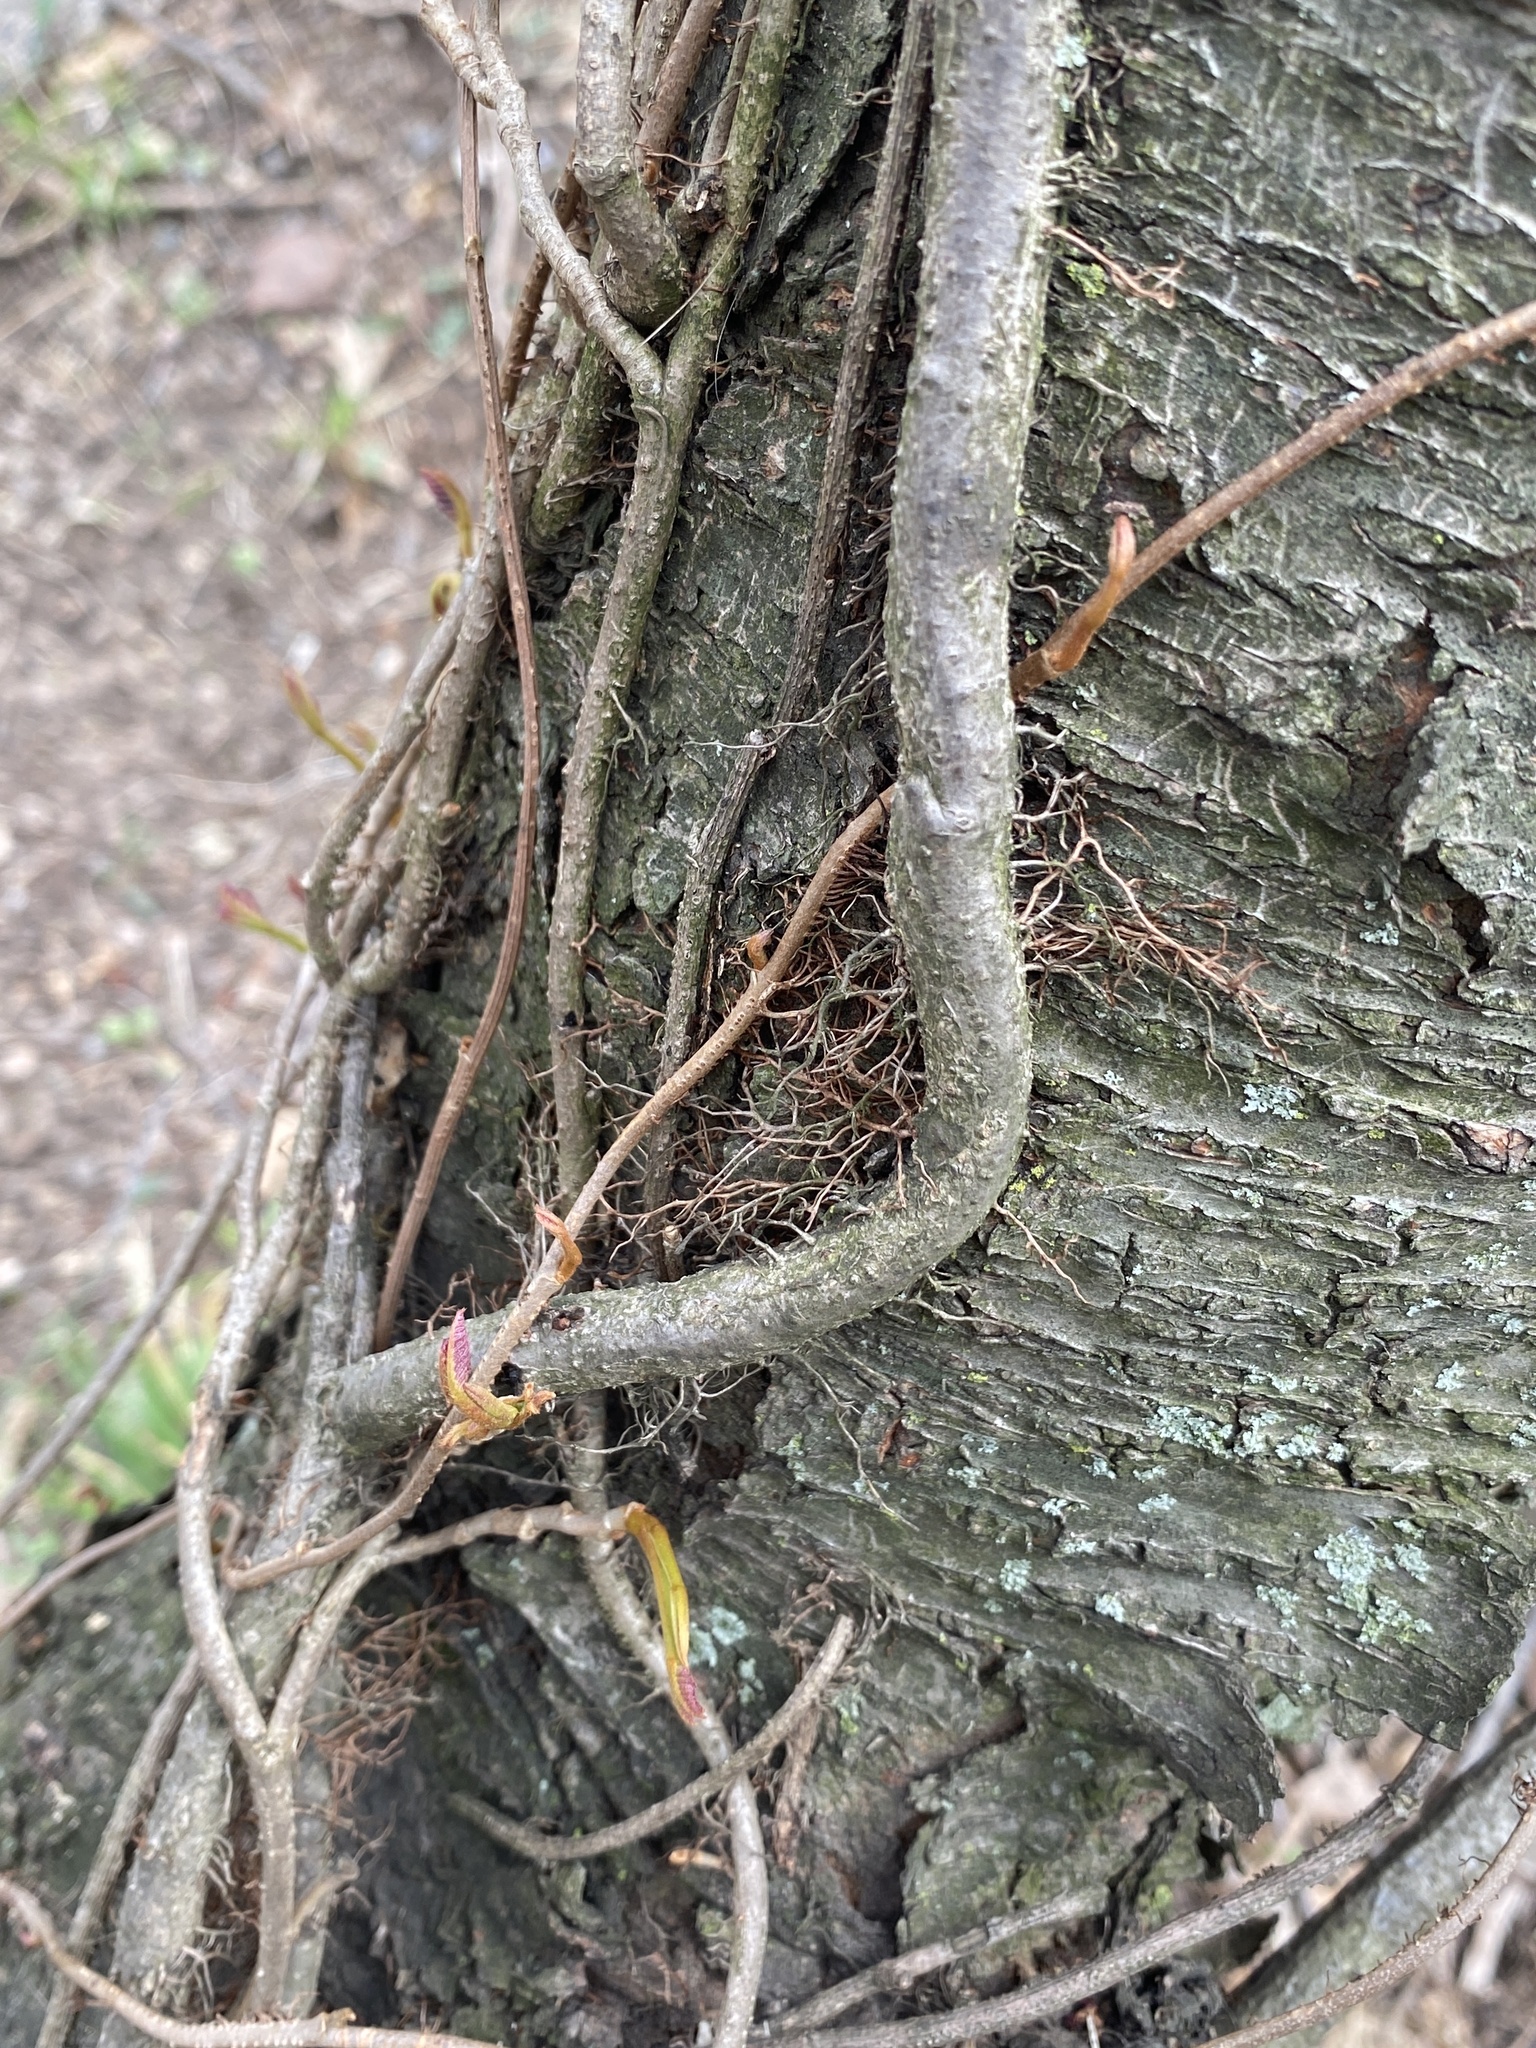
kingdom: Plantae
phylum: Tracheophyta
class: Magnoliopsida
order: Sapindales
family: Anacardiaceae
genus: Toxicodendron
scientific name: Toxicodendron radicans
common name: Poison ivy
